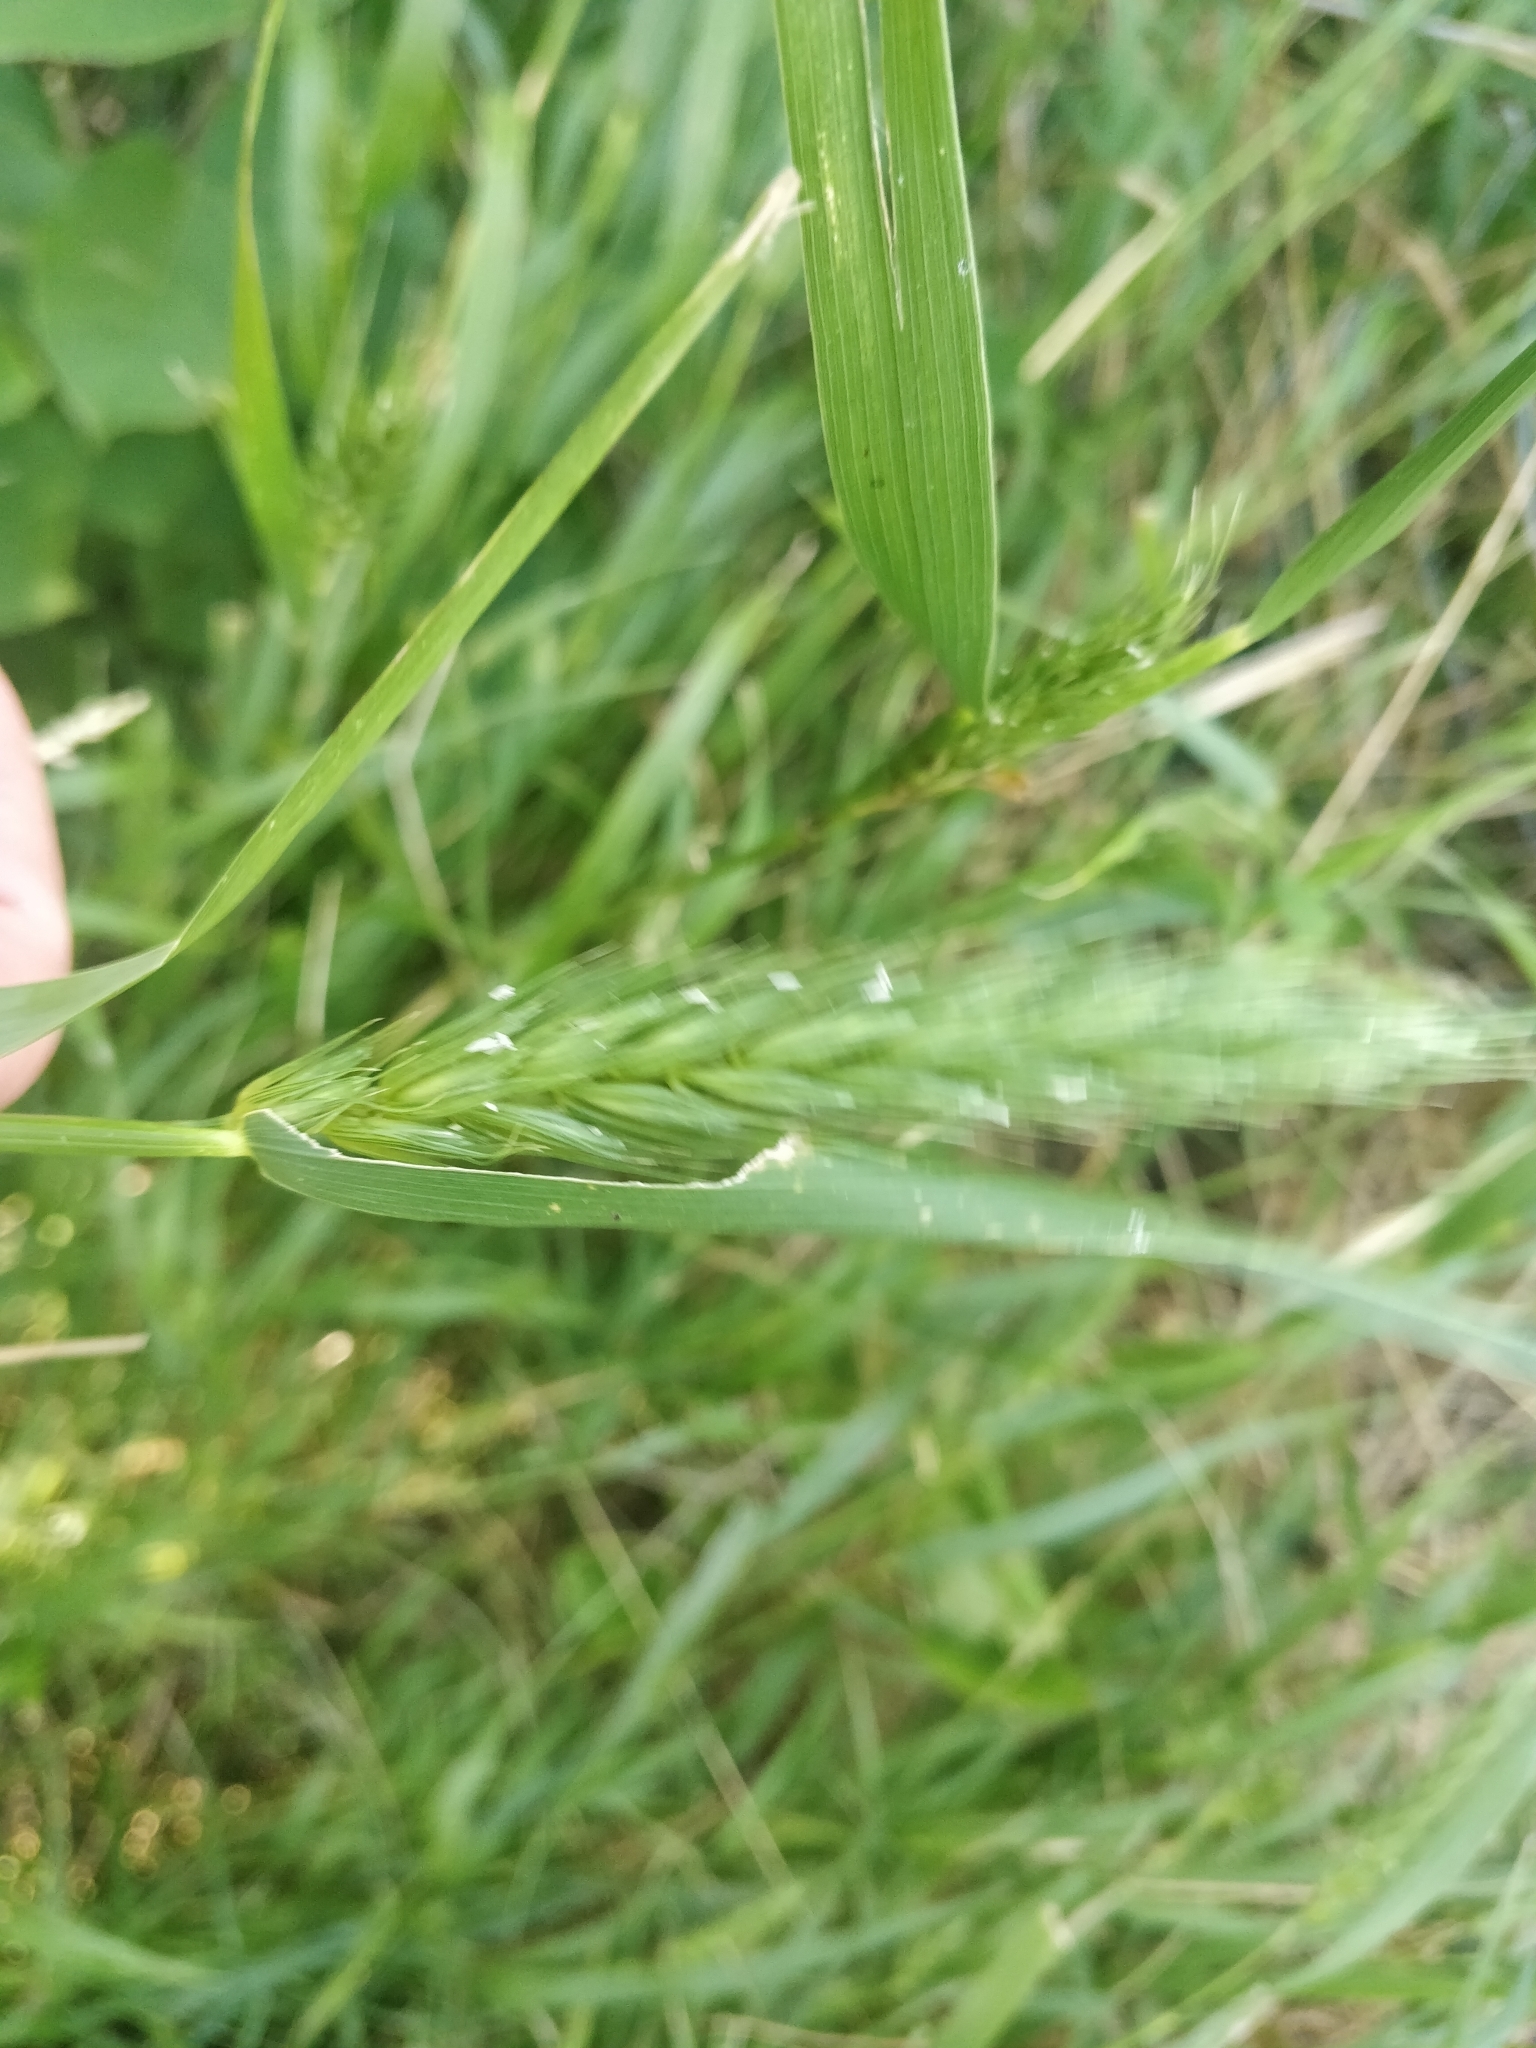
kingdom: Plantae
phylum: Tracheophyta
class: Liliopsida
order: Poales
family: Poaceae
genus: Elymus
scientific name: Elymus virginicus
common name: Common eastern wildrye
